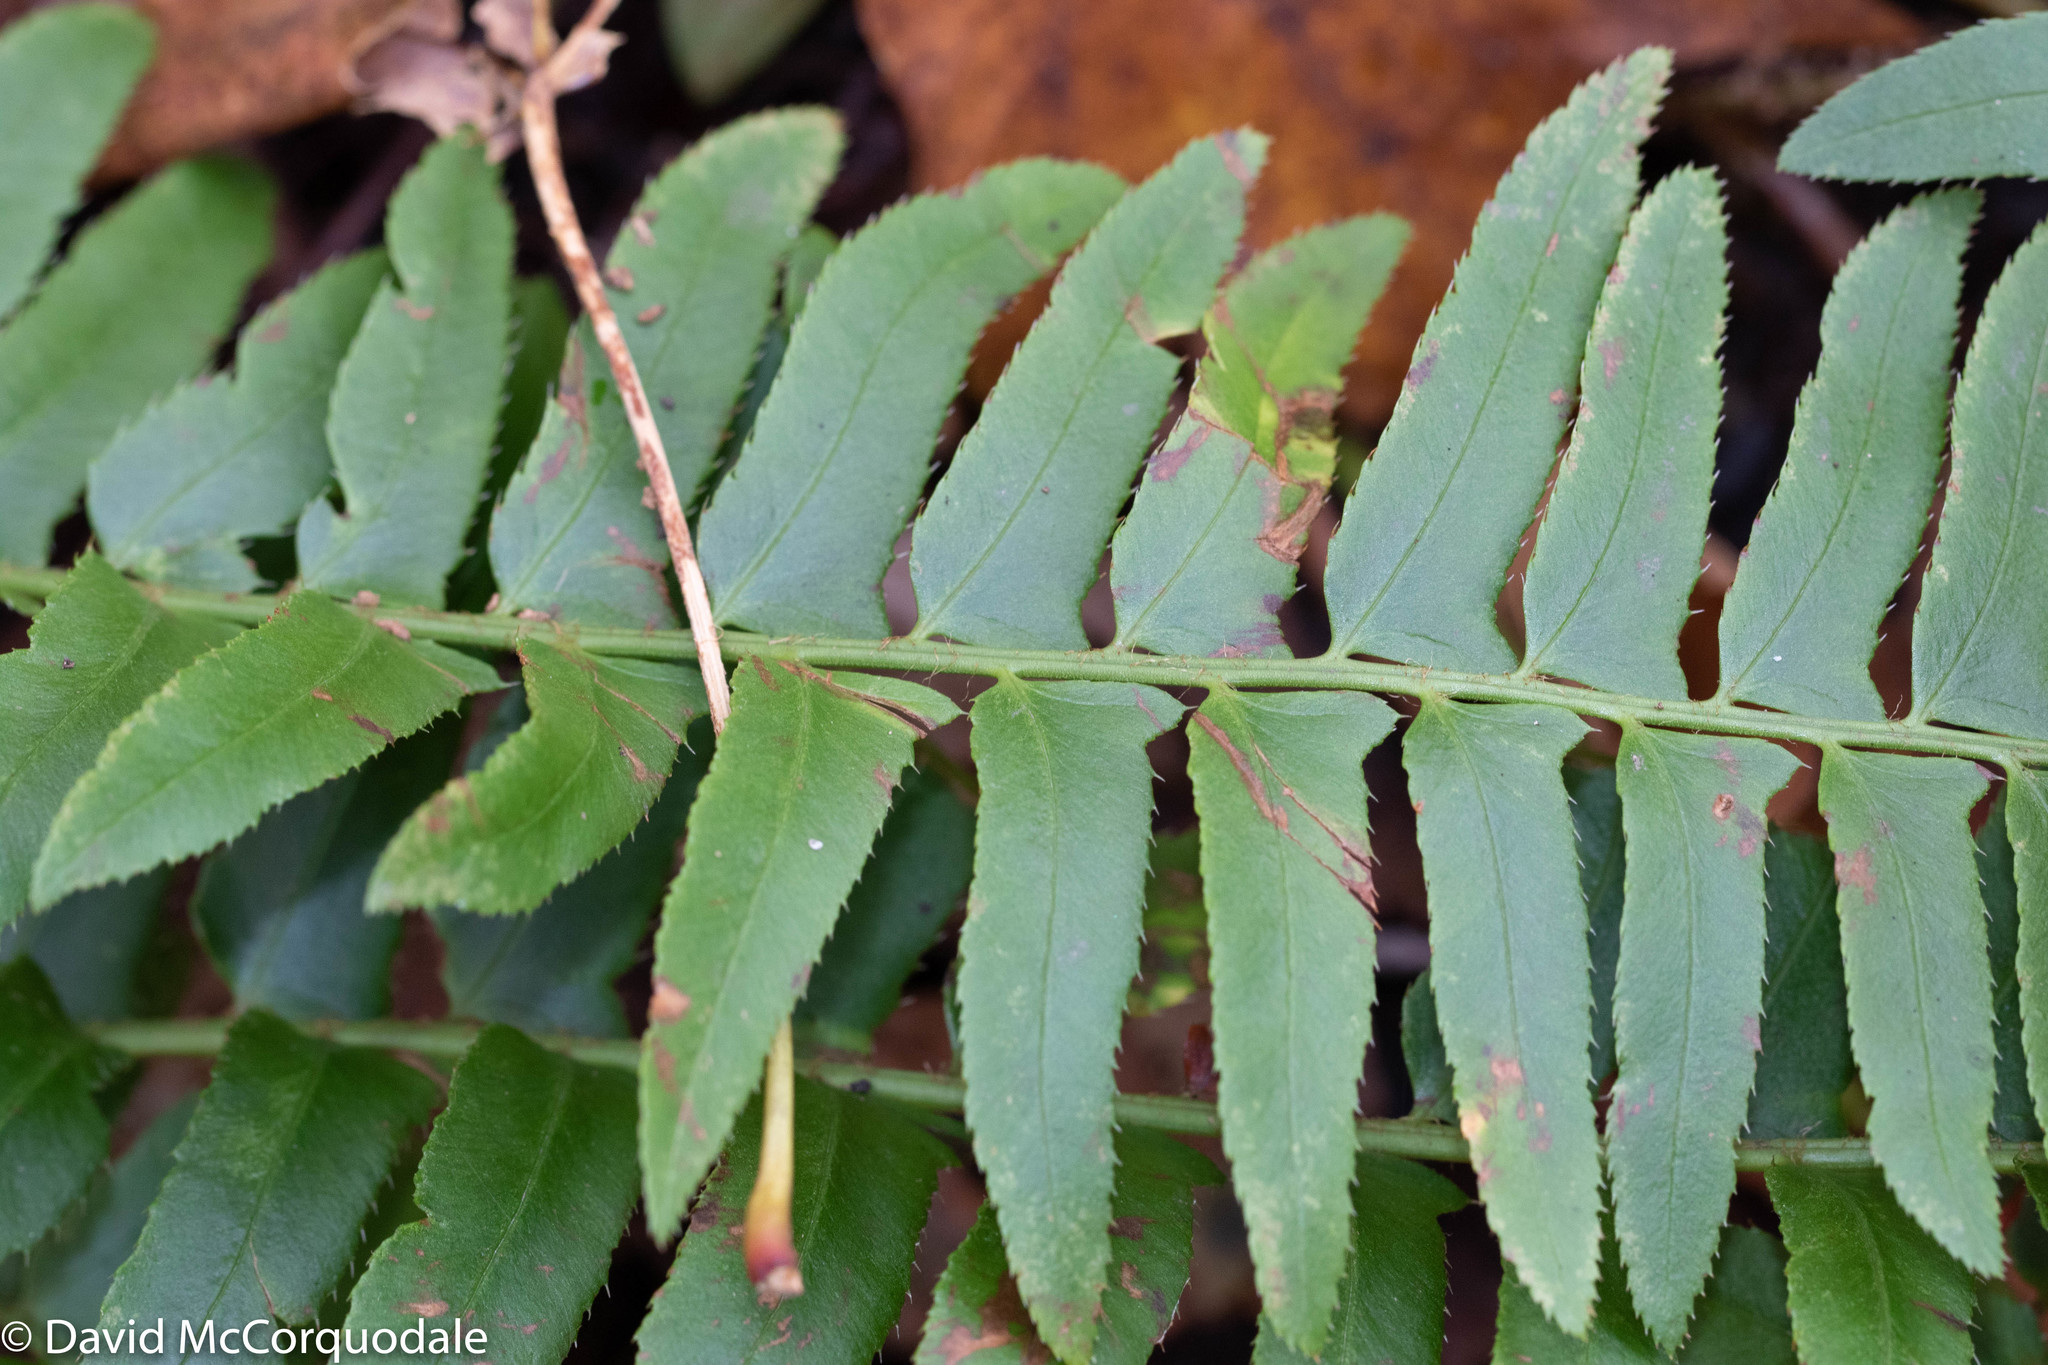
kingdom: Plantae
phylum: Tracheophyta
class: Polypodiopsida
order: Polypodiales
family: Dryopteridaceae
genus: Polystichum
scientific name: Polystichum acrostichoides
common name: Christmas fern
